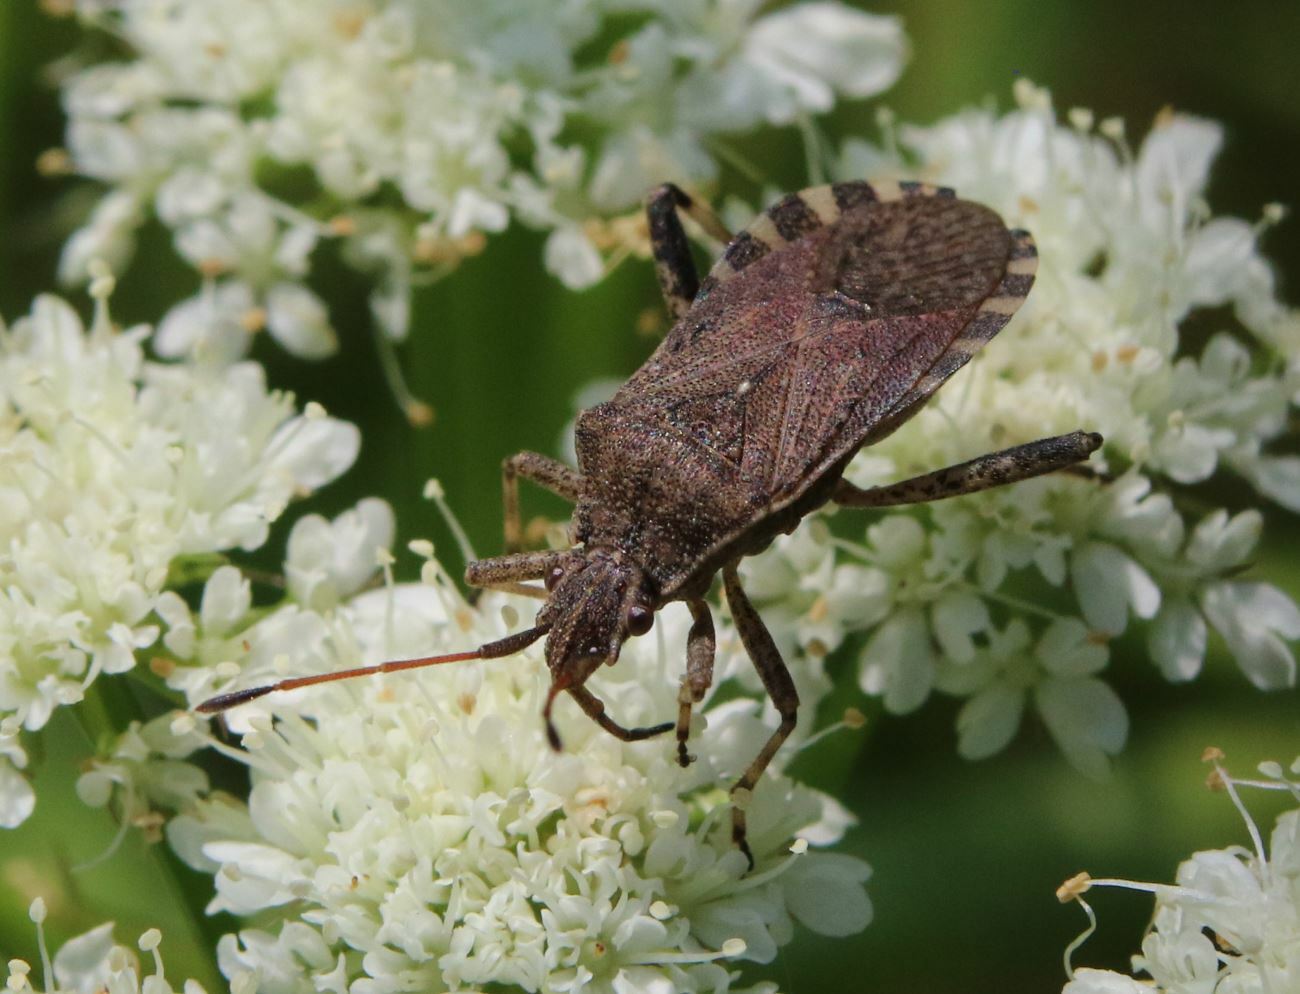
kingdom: Animalia
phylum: Arthropoda
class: Insecta
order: Hemiptera
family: Coreidae
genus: Ceraleptus
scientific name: Ceraleptus gracilicornis
